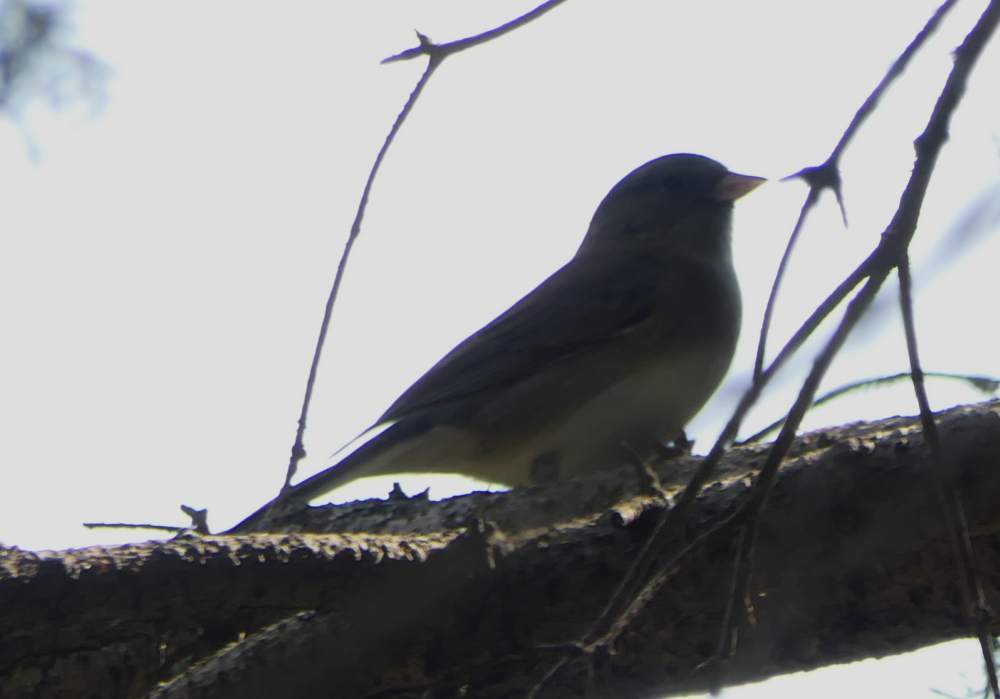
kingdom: Animalia
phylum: Chordata
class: Aves
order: Passeriformes
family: Passerellidae
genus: Junco
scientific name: Junco hyemalis
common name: Dark-eyed junco
